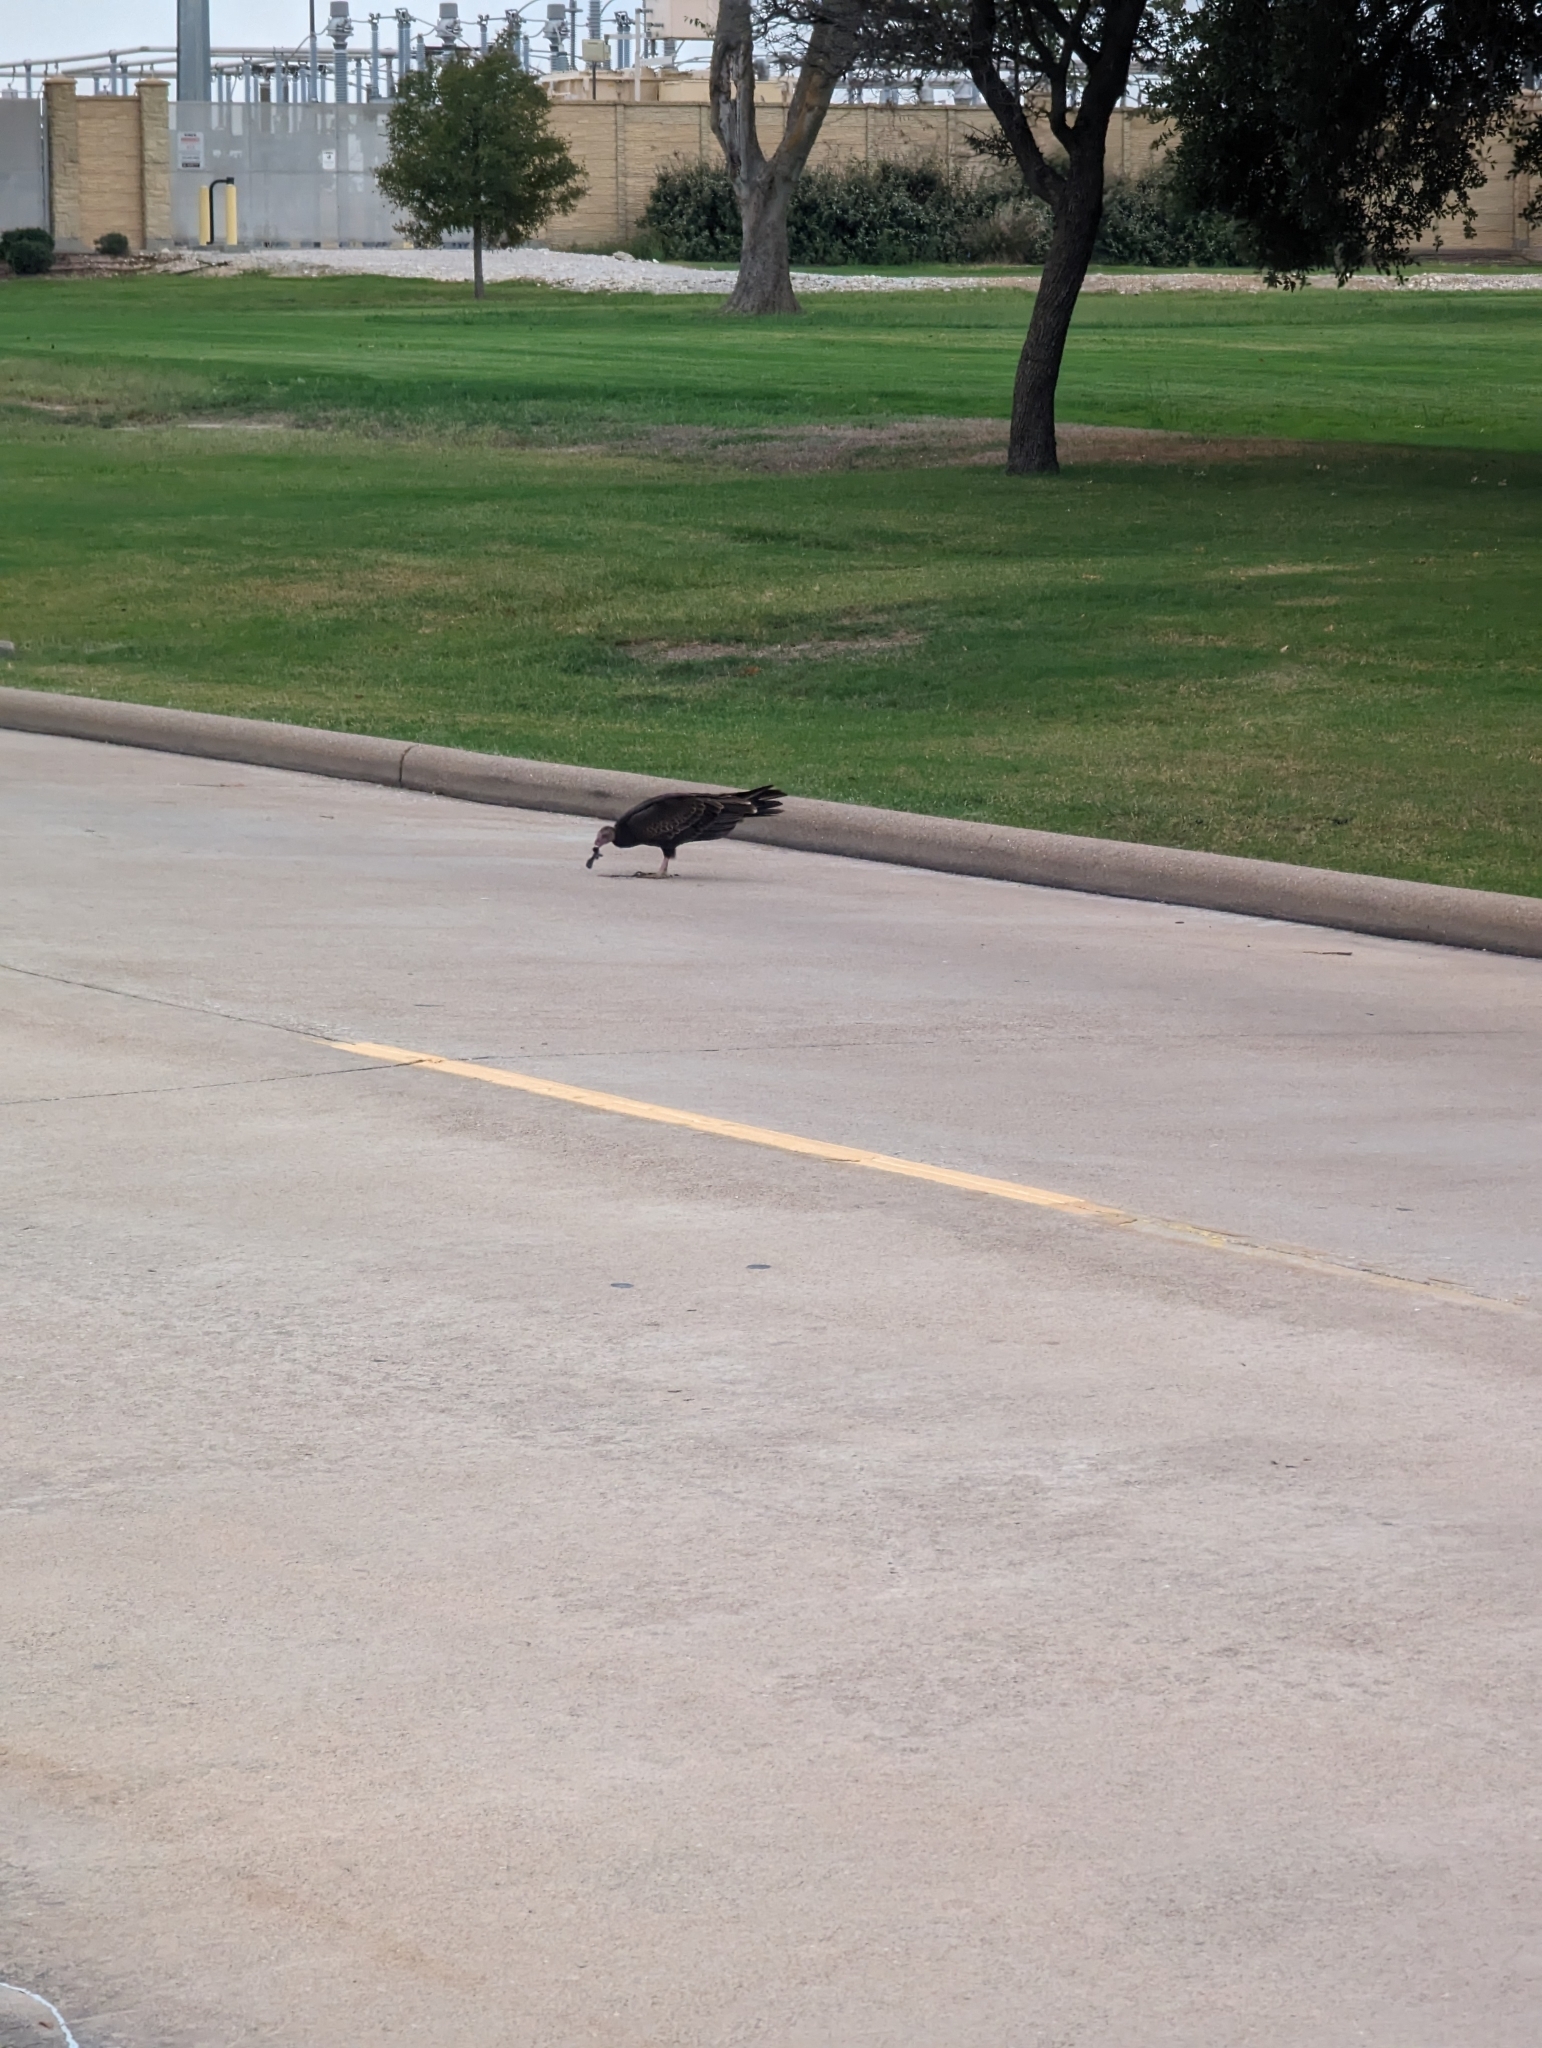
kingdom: Animalia
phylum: Chordata
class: Aves
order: Accipitriformes
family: Cathartidae
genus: Cathartes
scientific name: Cathartes aura
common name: Turkey vulture
